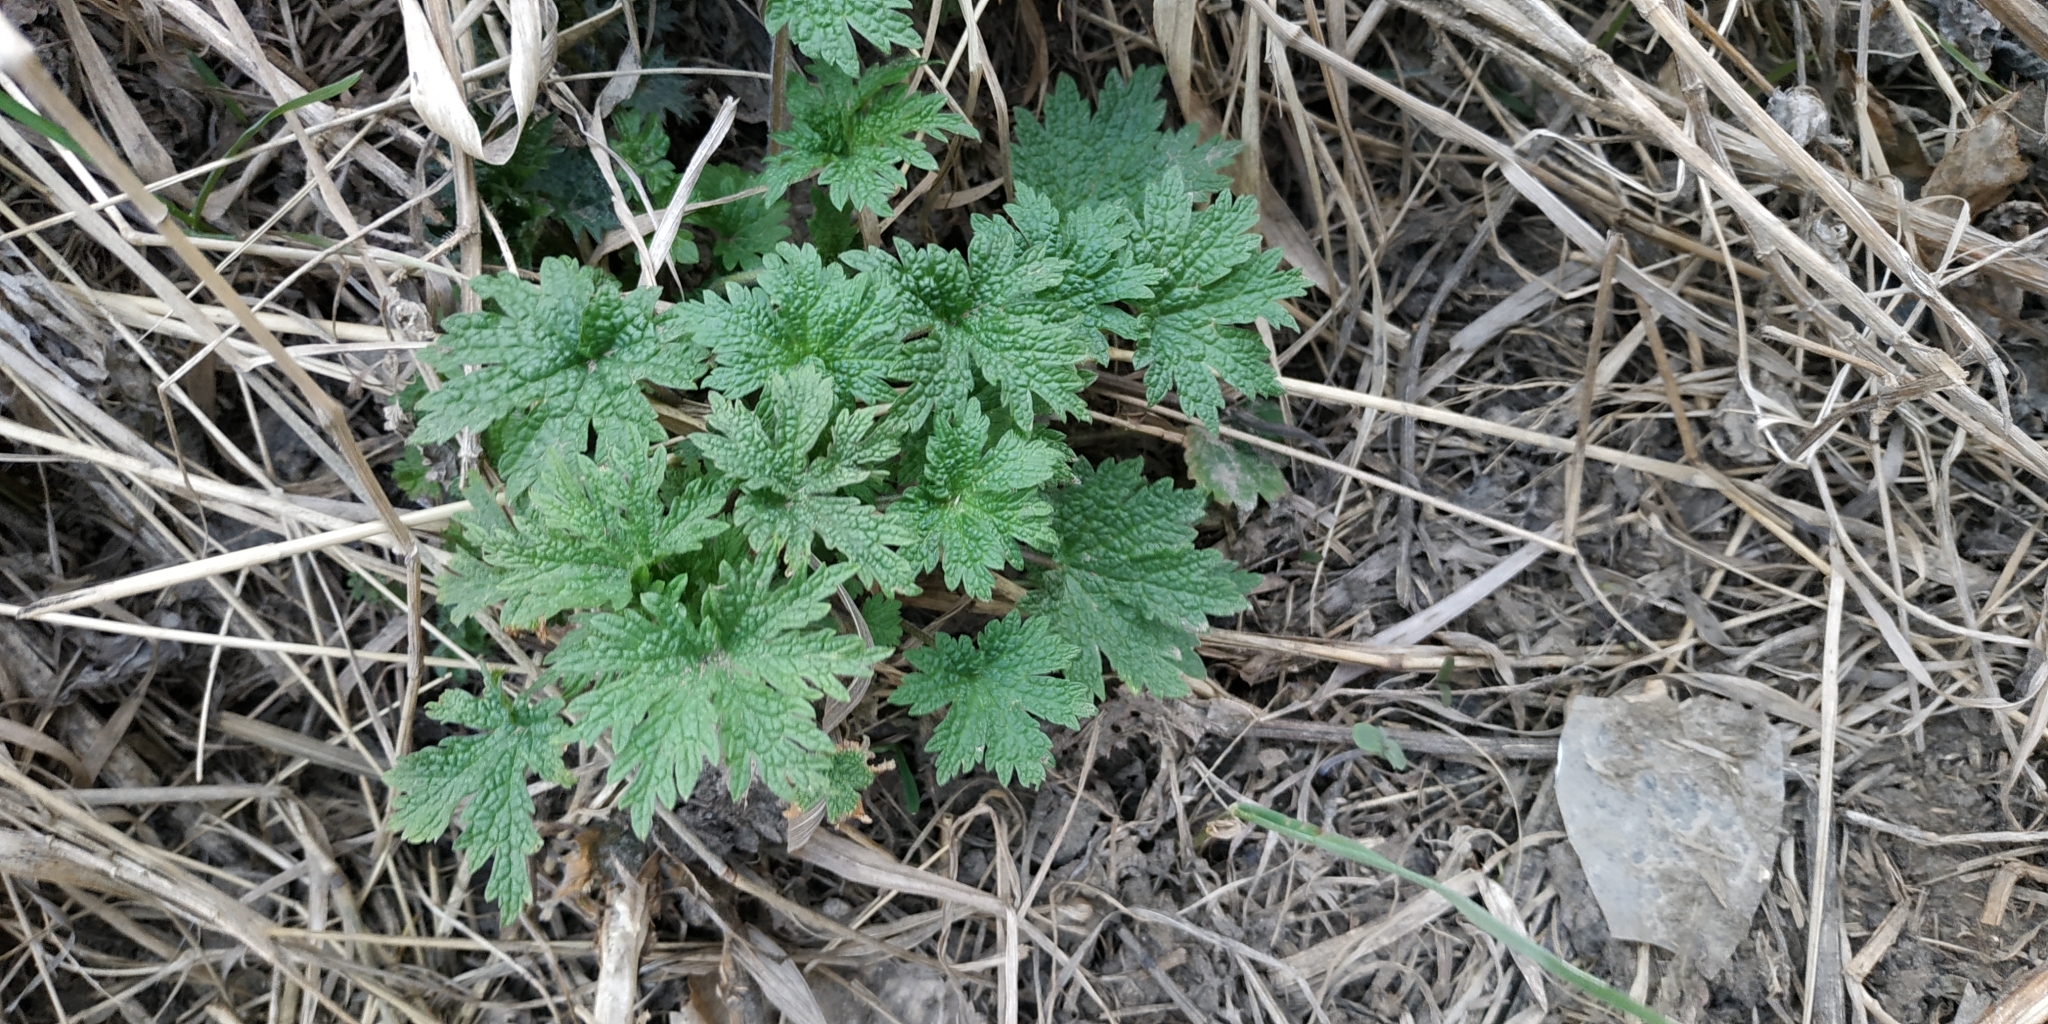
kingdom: Plantae
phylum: Tracheophyta
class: Magnoliopsida
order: Lamiales
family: Lamiaceae
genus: Leonurus
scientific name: Leonurus quinquelobatus
